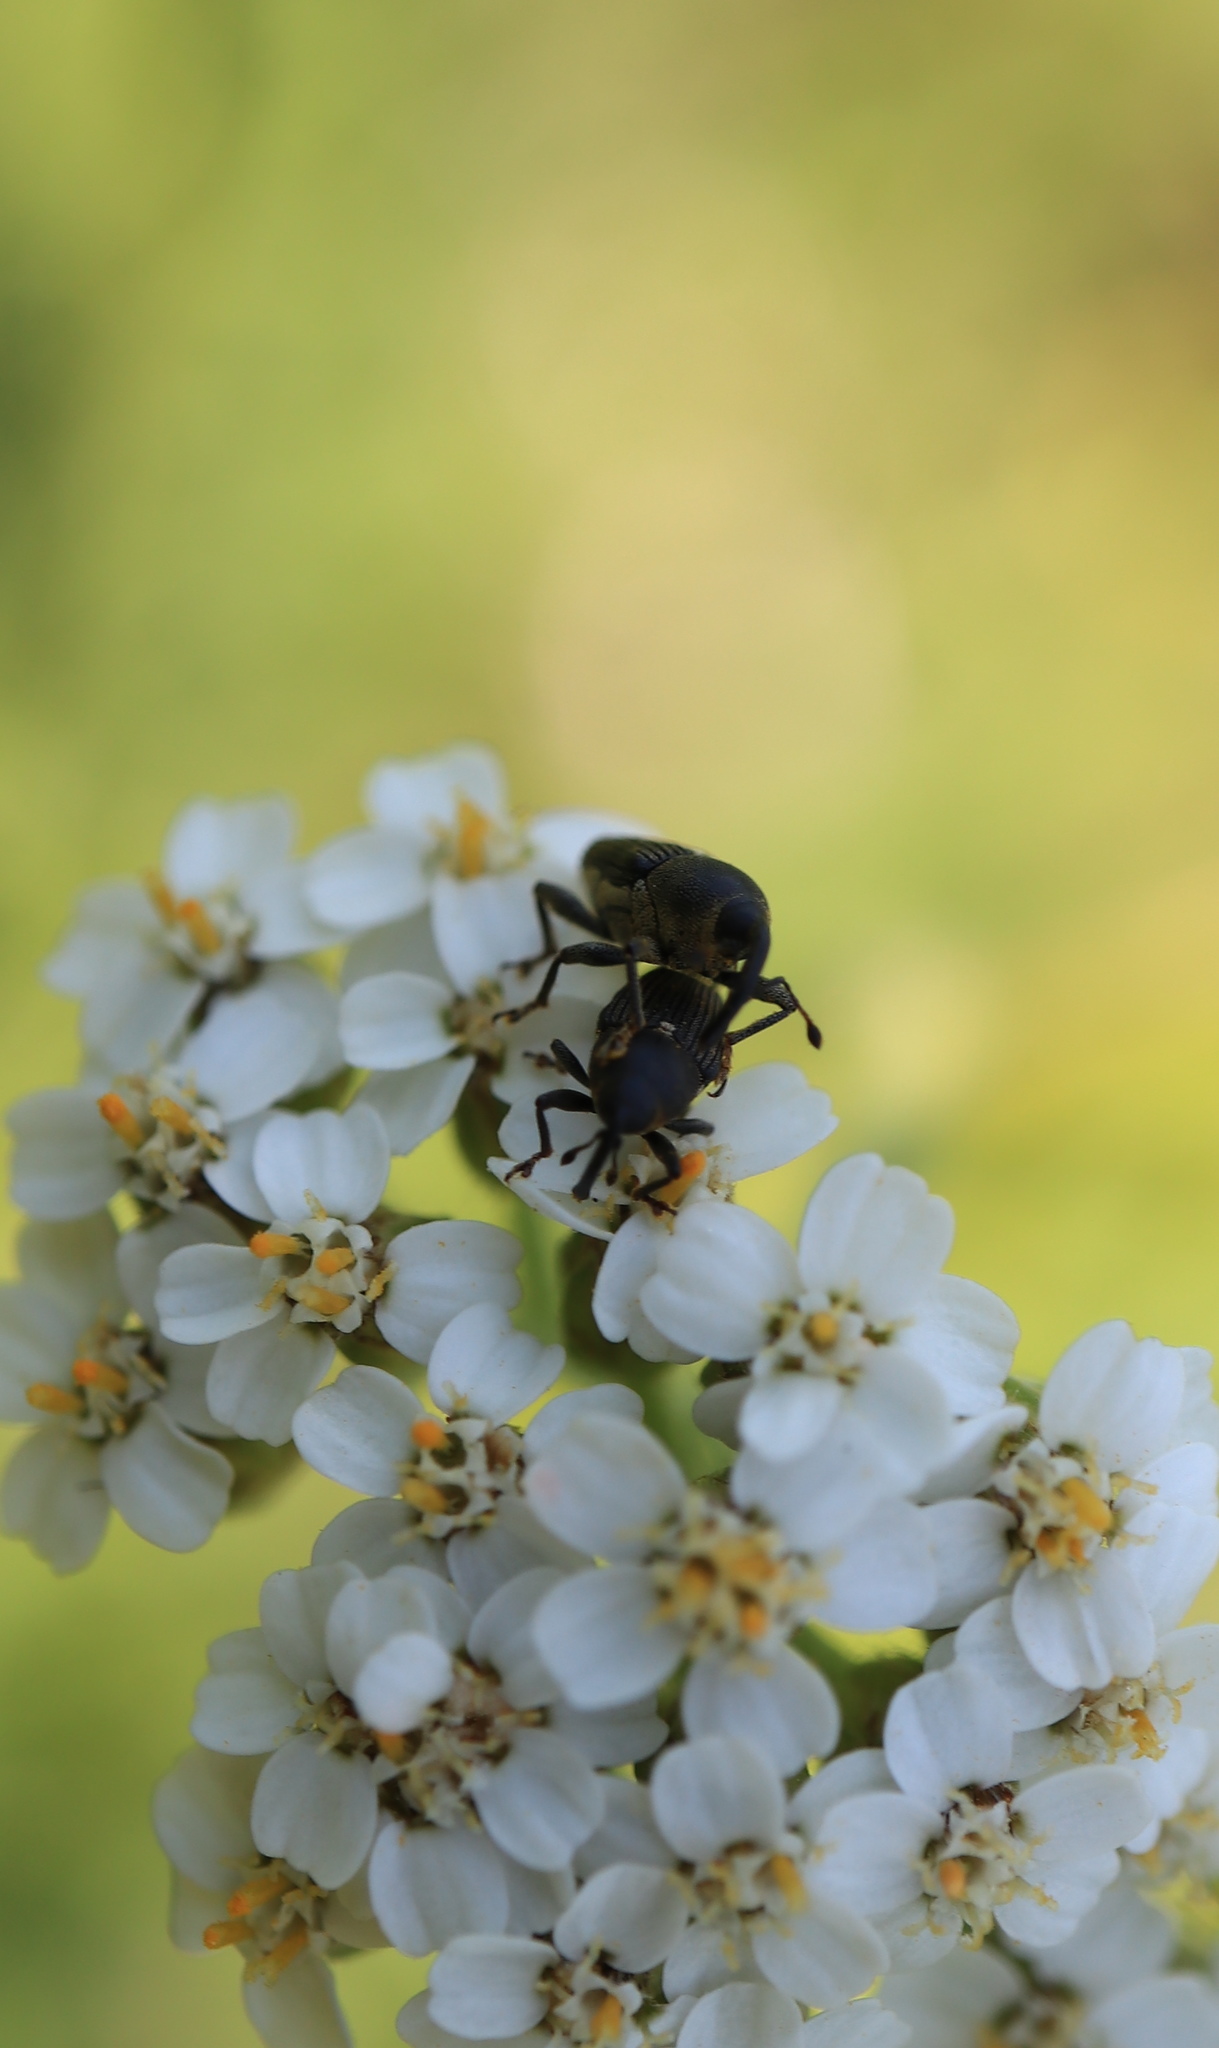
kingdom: Animalia
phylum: Arthropoda
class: Insecta
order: Coleoptera
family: Curculionidae
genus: Odontocorynus
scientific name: Odontocorynus salebrosus
